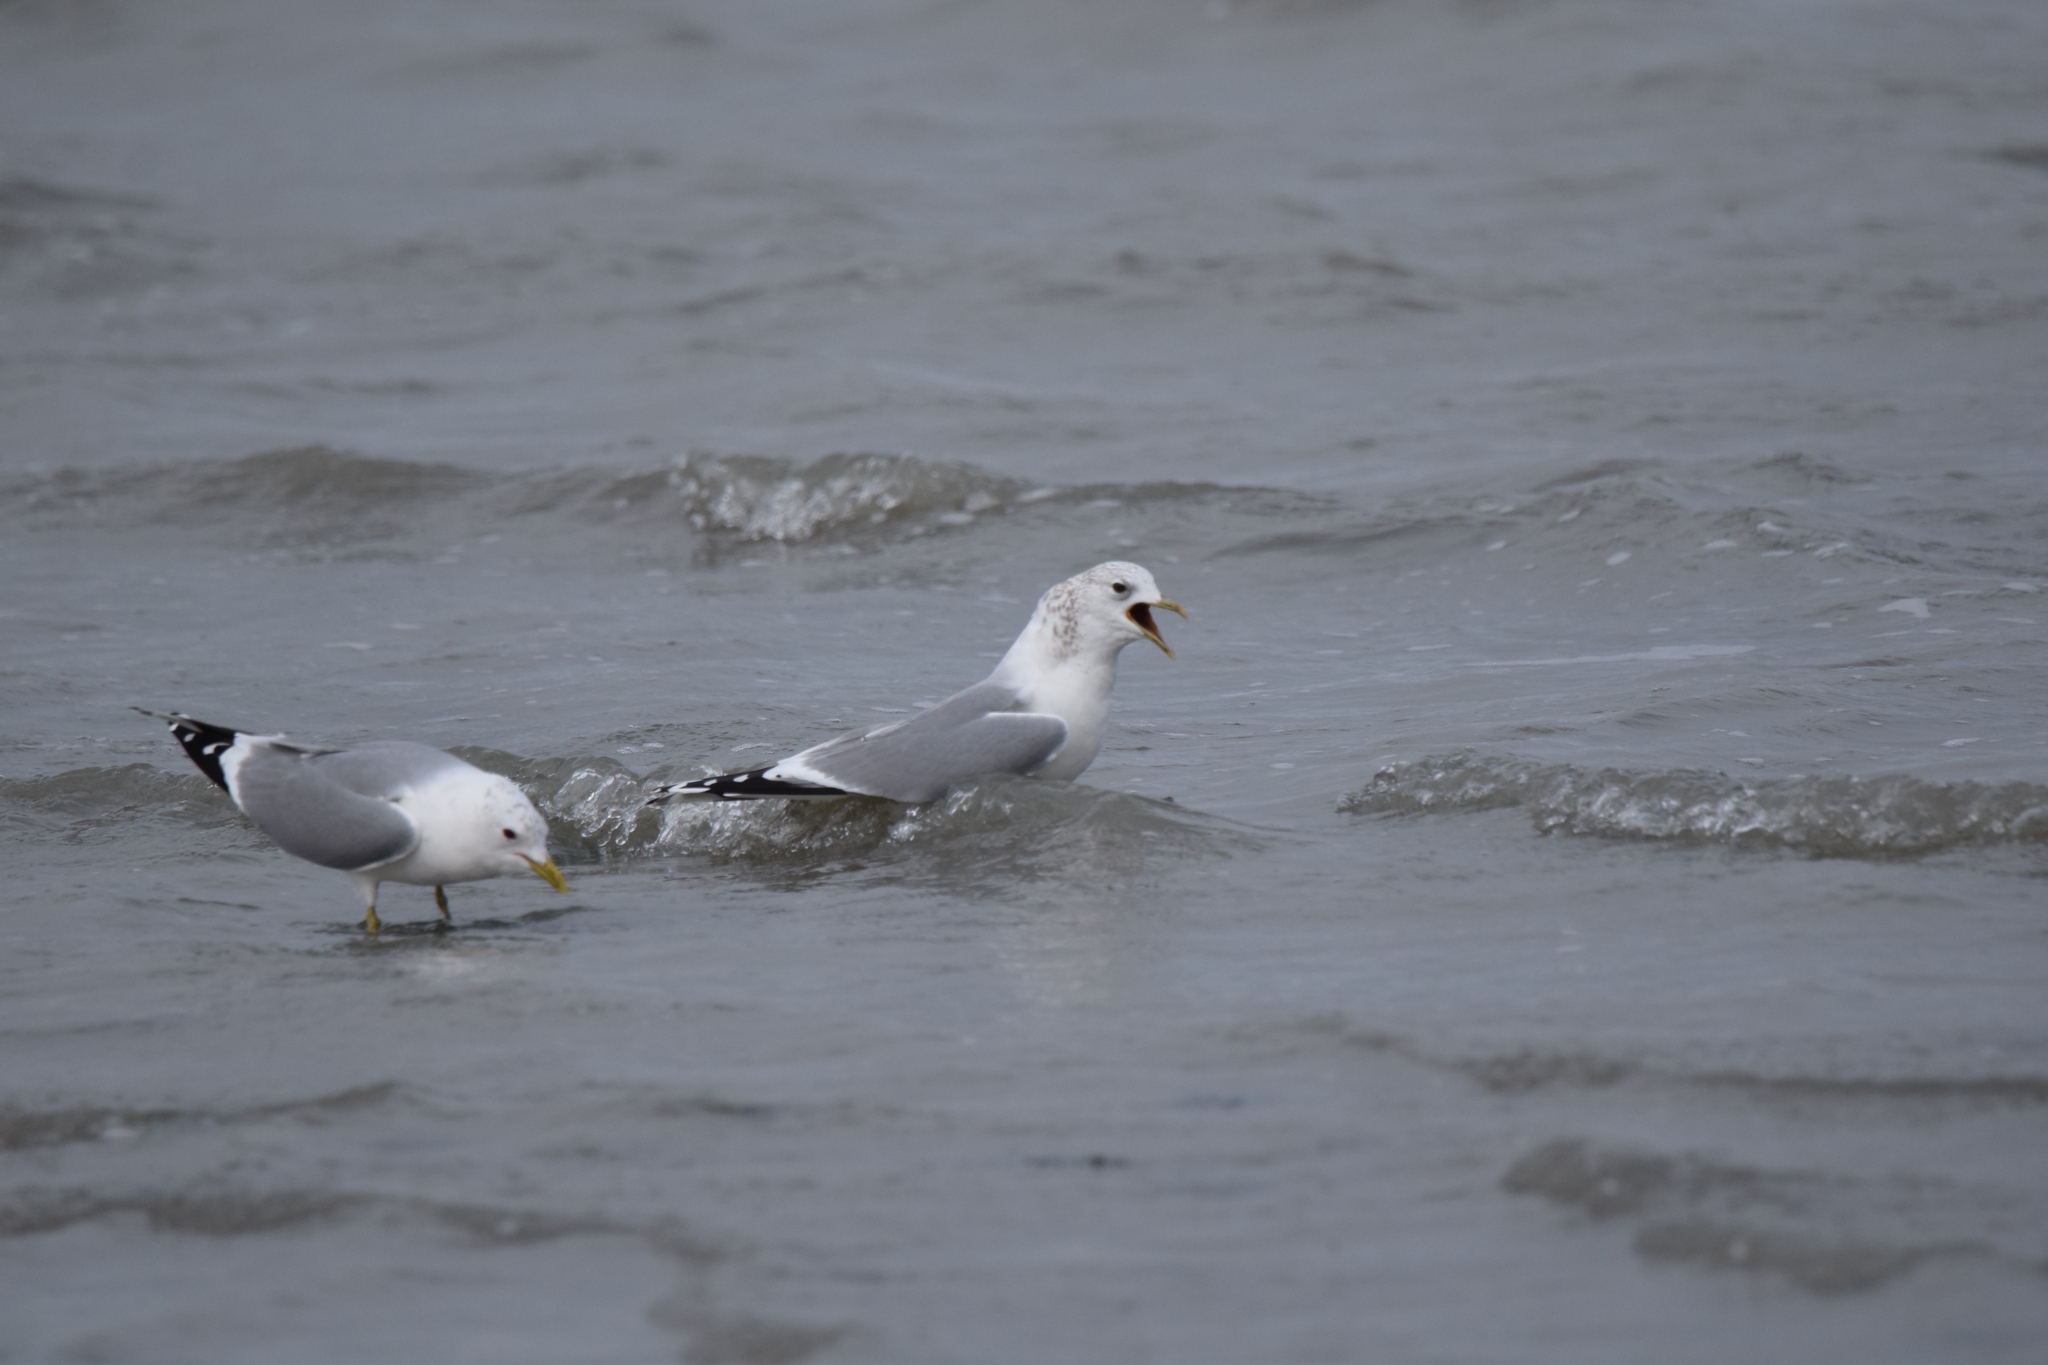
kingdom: Animalia
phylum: Chordata
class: Aves
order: Charadriiformes
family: Laridae
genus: Larus
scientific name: Larus canus
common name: Mew gull
